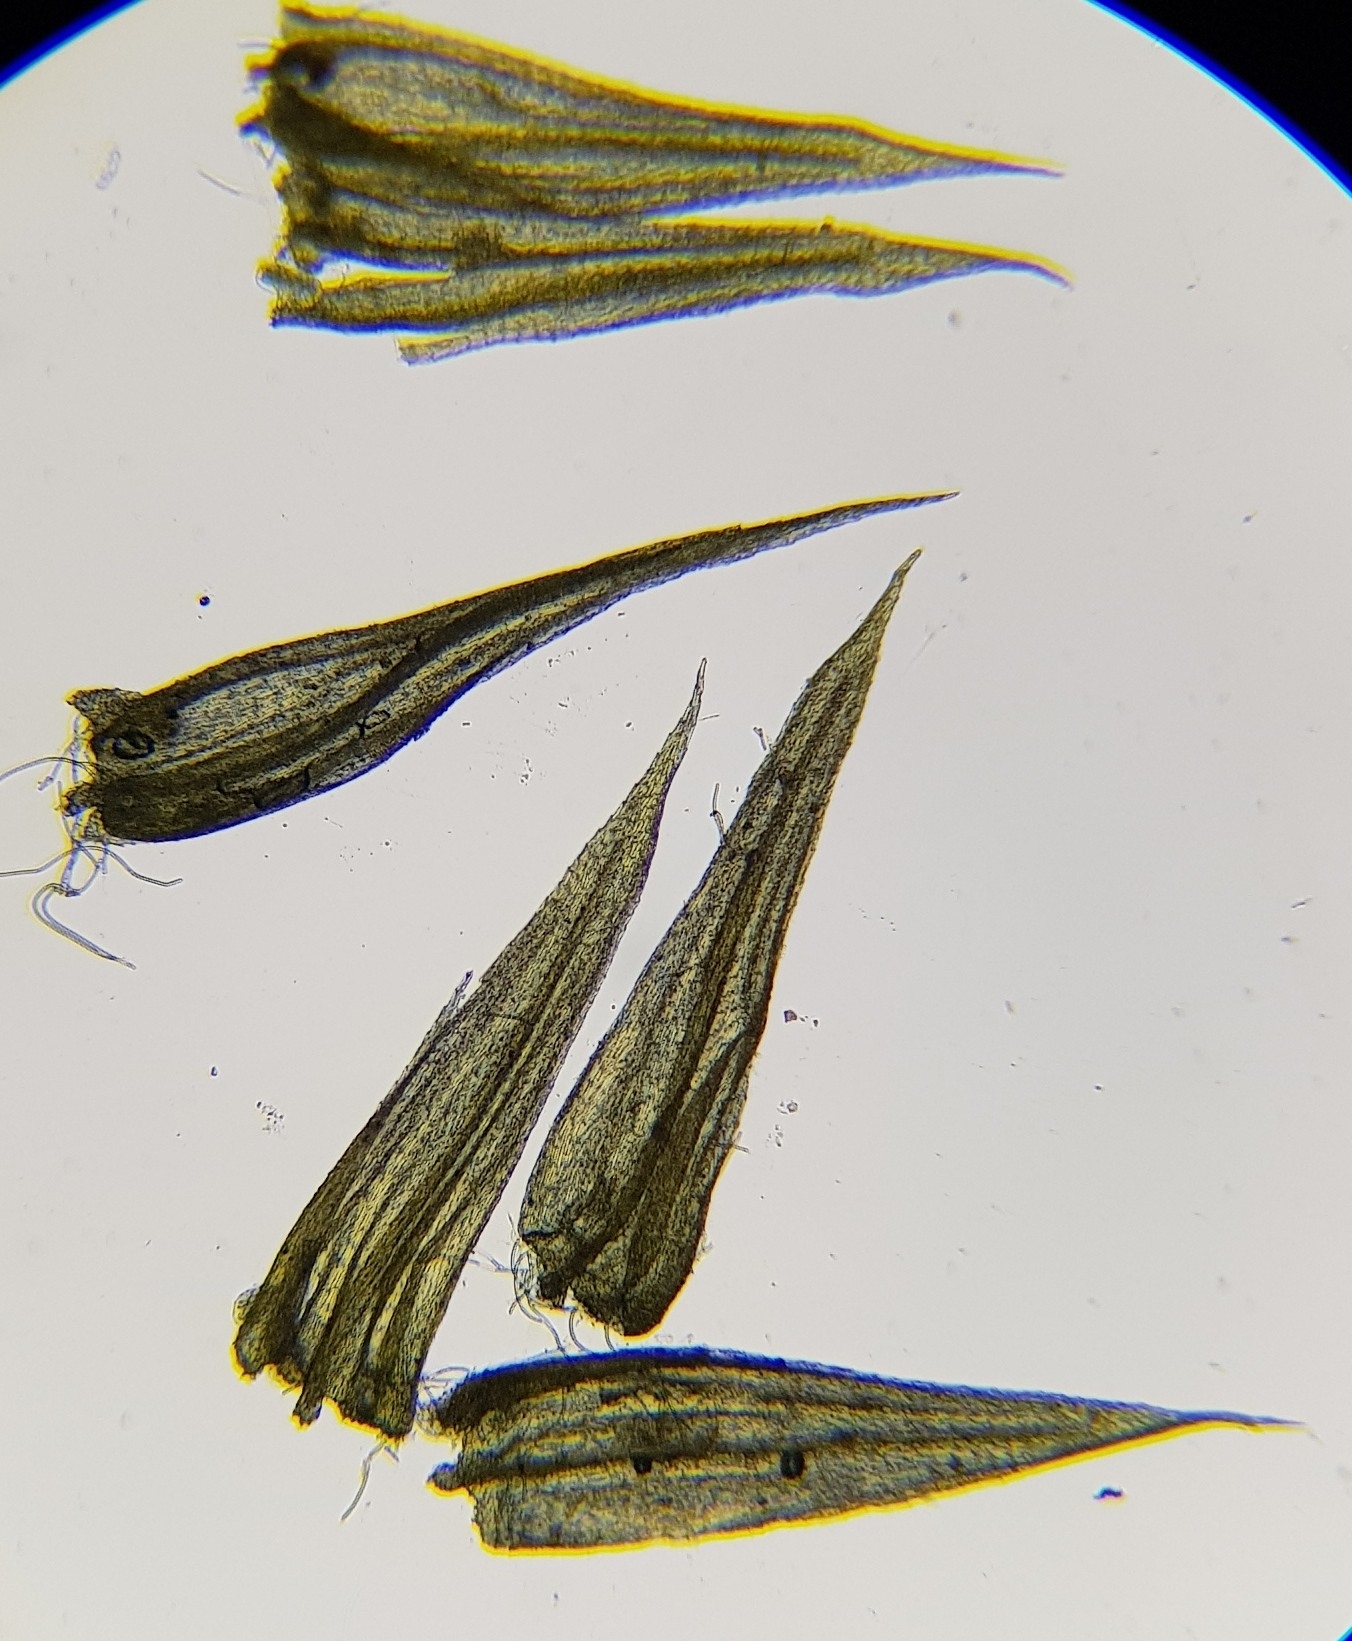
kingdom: Plantae
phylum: Bryophyta
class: Bryopsida
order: Hypnales
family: Brachytheciaceae
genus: Homalothecium
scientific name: Homalothecium sericeum
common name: Silky wall feather-moss
